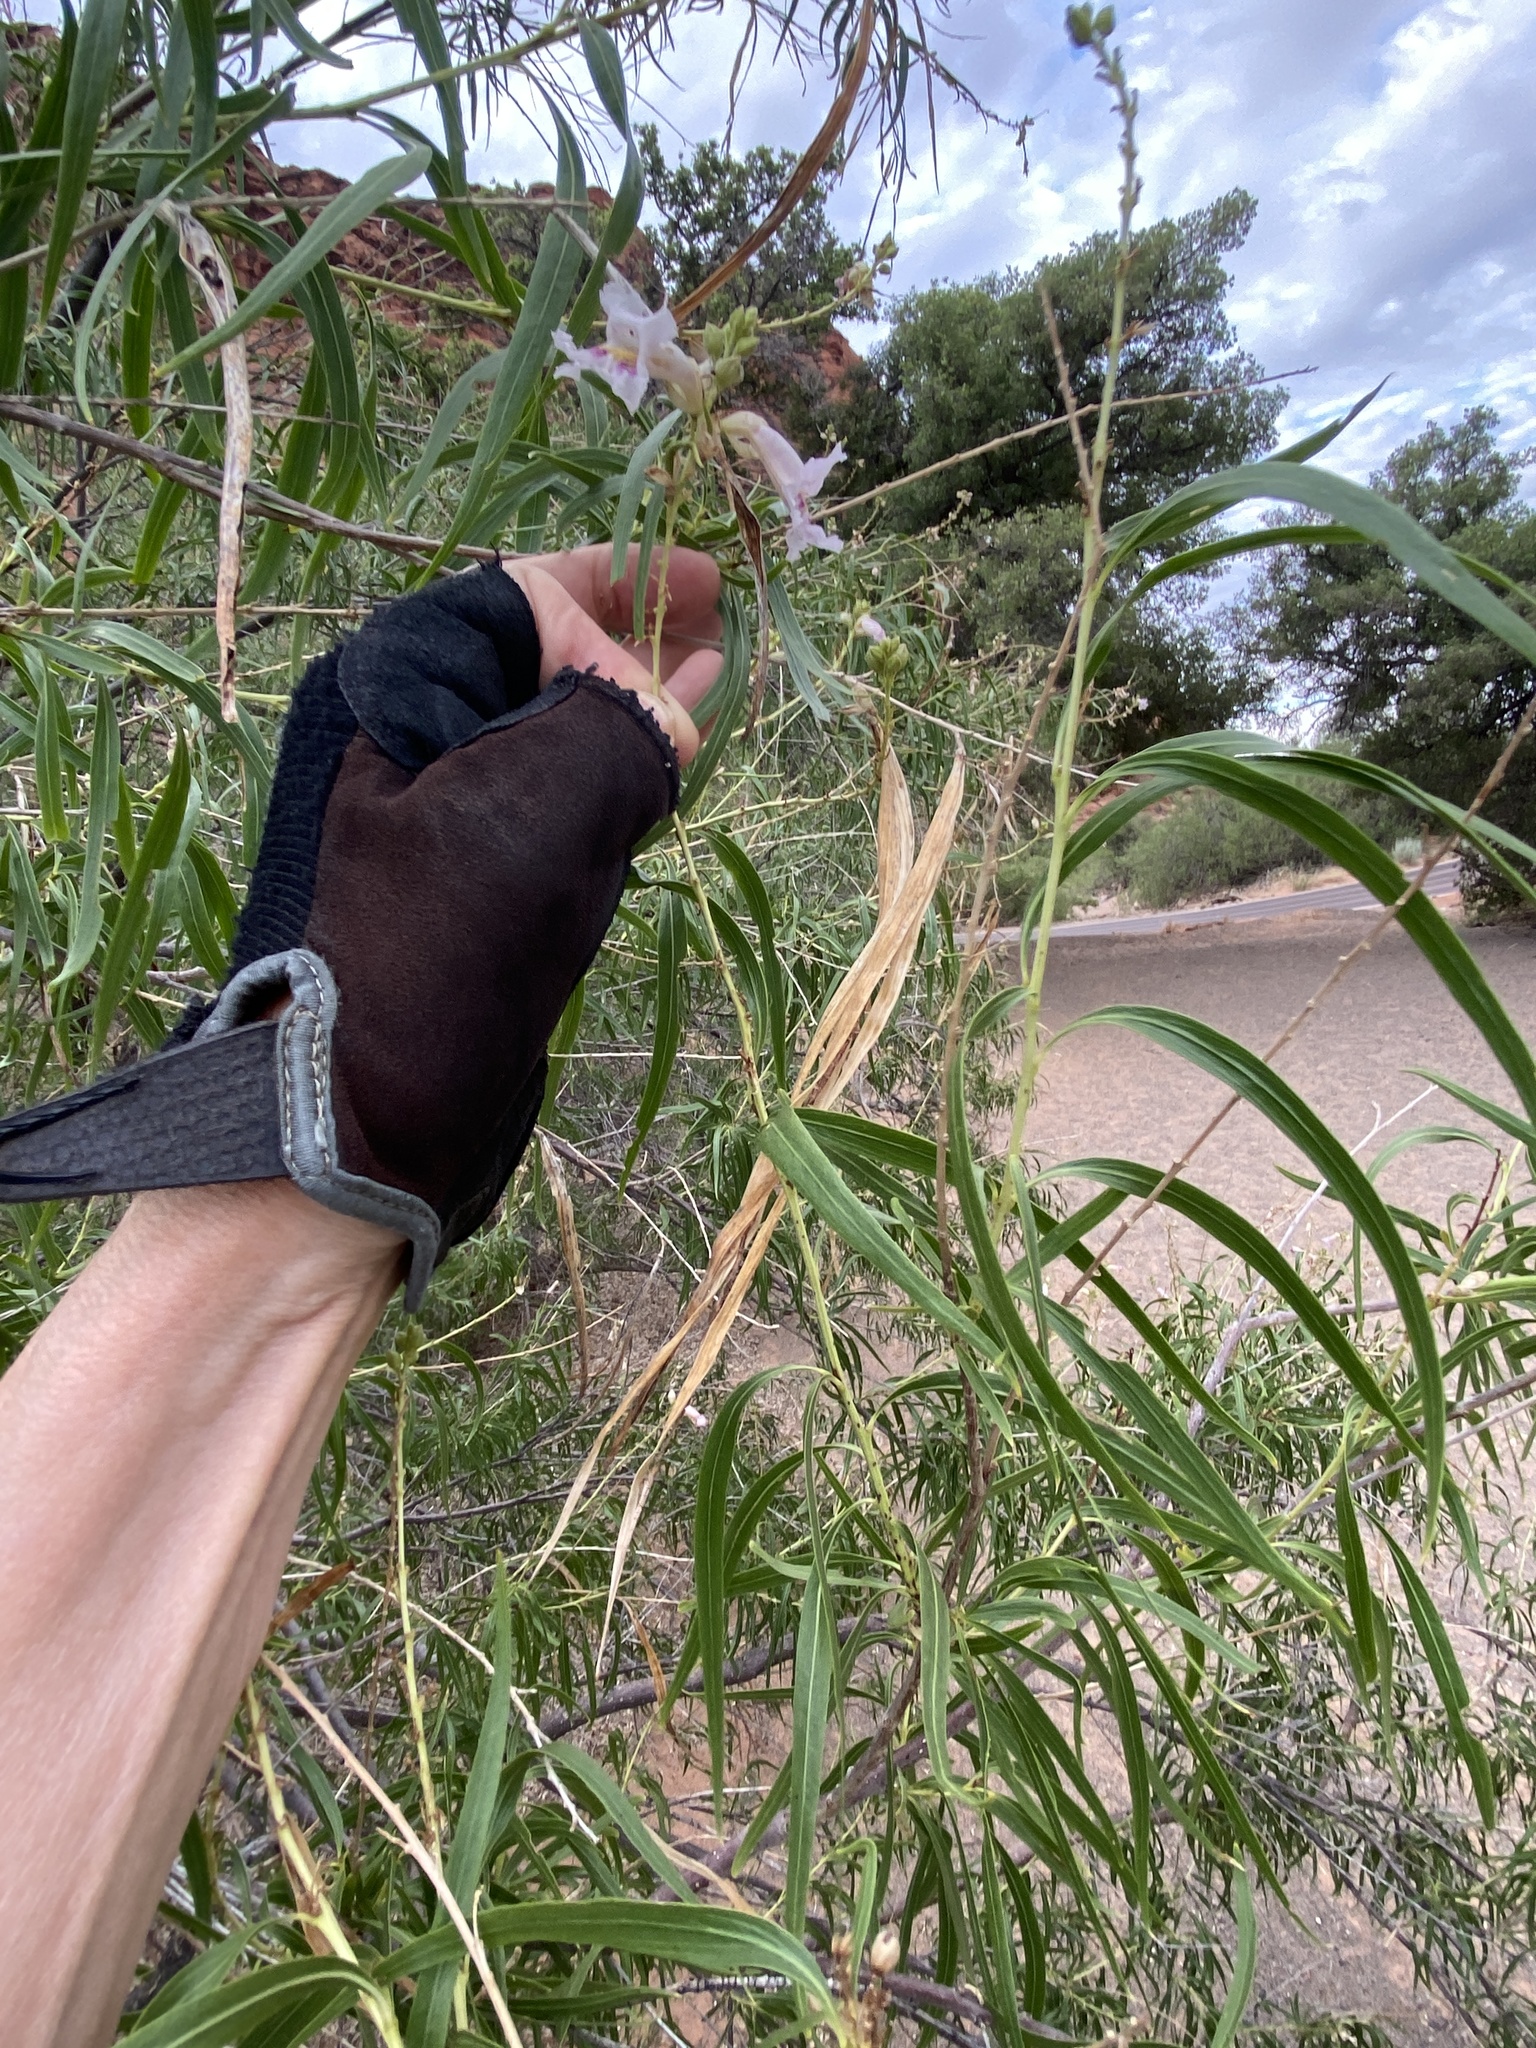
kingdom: Plantae
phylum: Tracheophyta
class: Magnoliopsida
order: Lamiales
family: Bignoniaceae
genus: Chilopsis
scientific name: Chilopsis linearis
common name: Desert-willow
